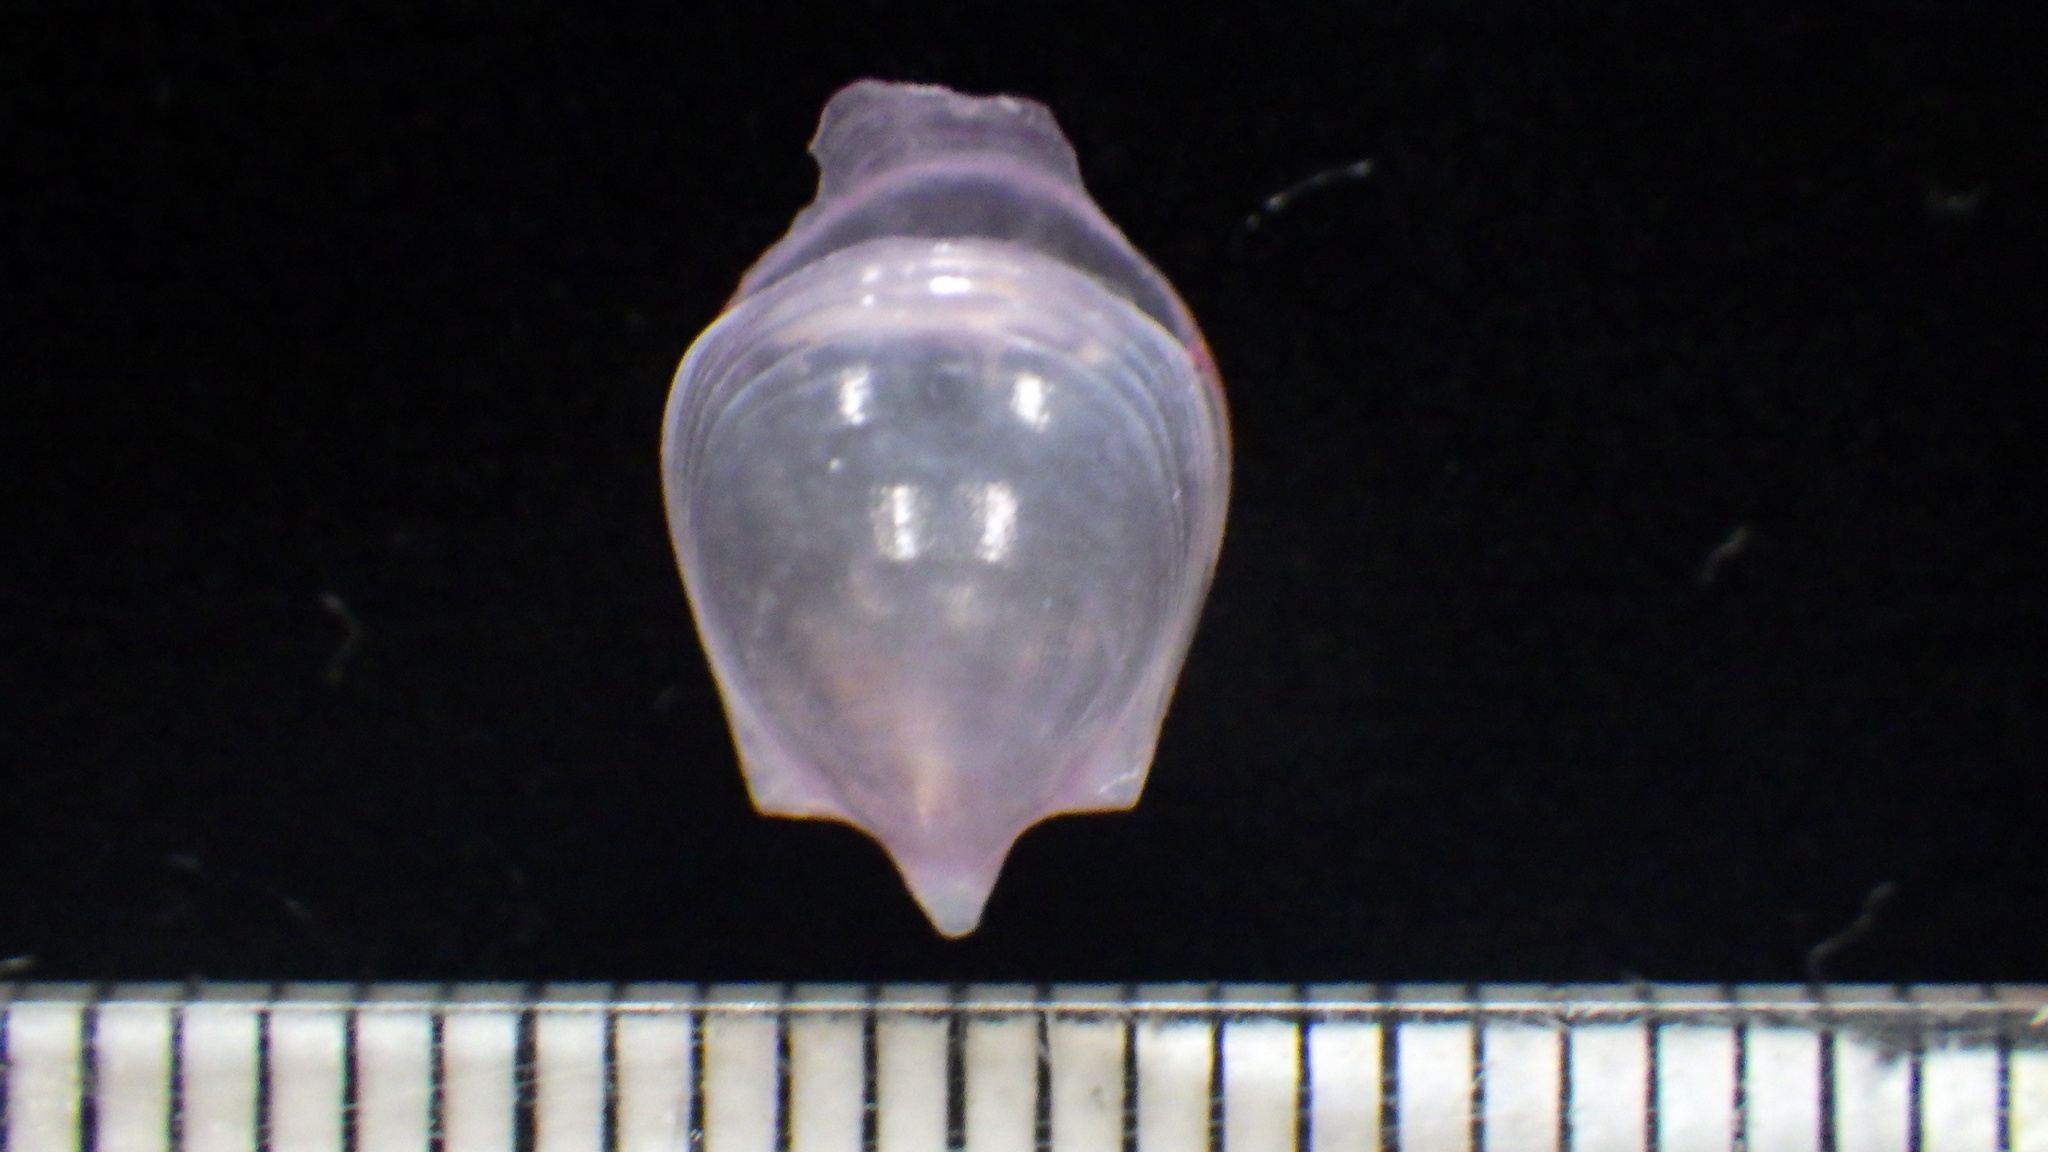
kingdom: Animalia
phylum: Mollusca
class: Gastropoda
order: Pteropoda
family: Cavoliniidae
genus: Cavolinia
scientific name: Cavolinia gibbosa
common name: Gibbose cavoline
